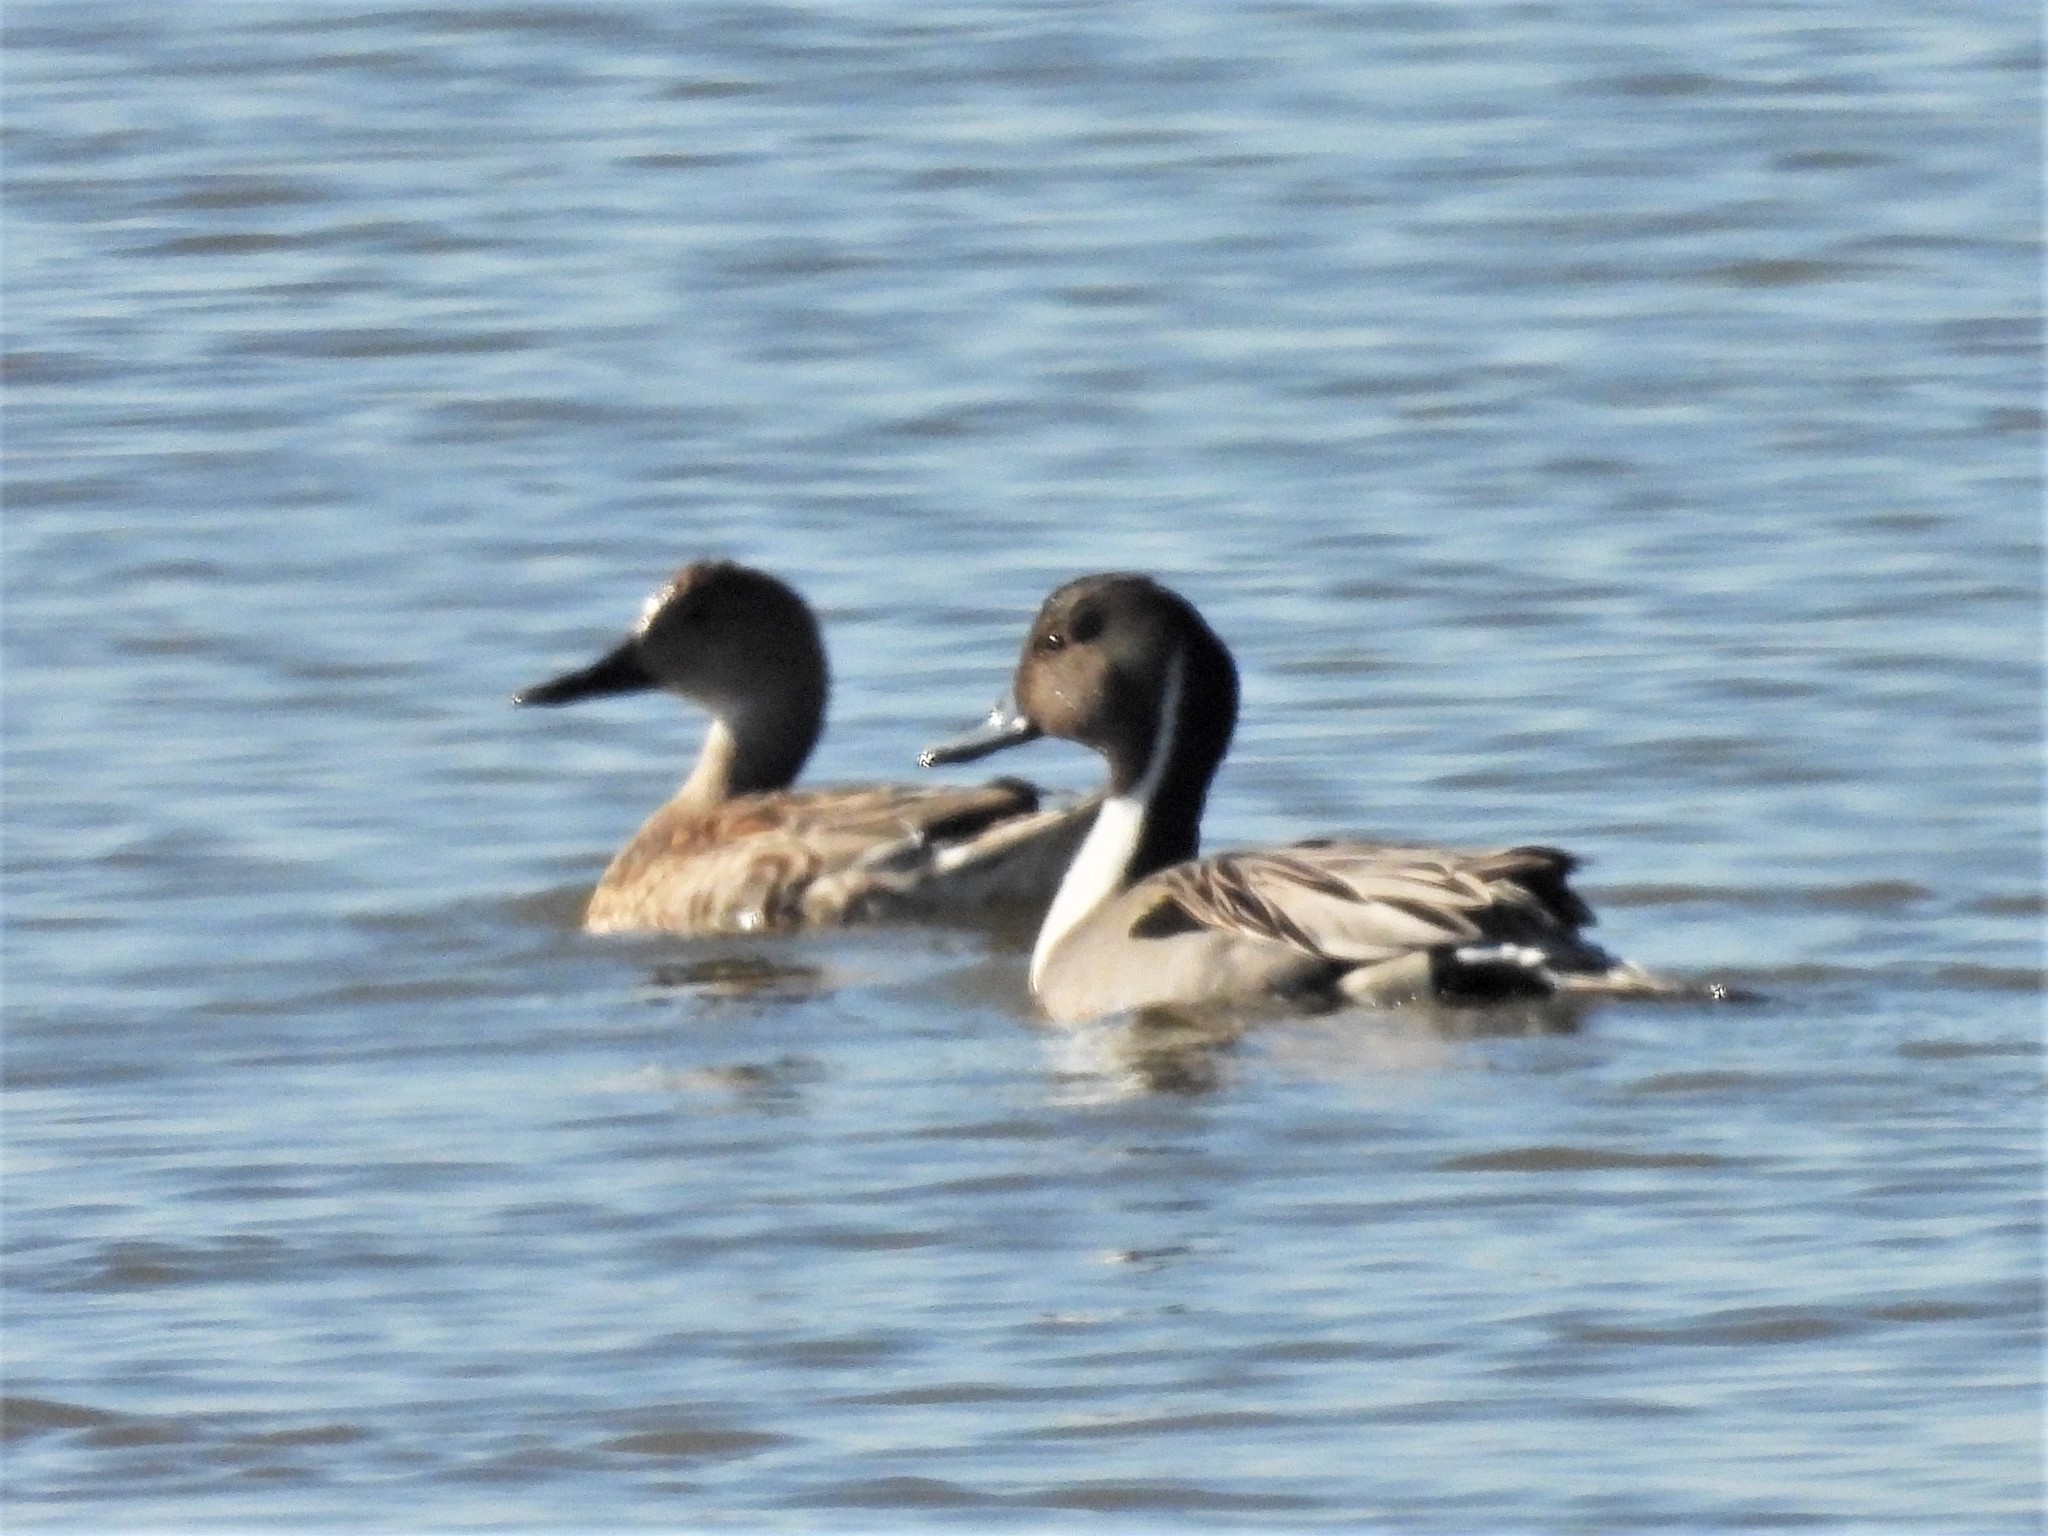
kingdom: Animalia
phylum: Chordata
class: Aves
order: Anseriformes
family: Anatidae
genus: Anas
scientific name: Anas acuta
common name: Northern pintail
